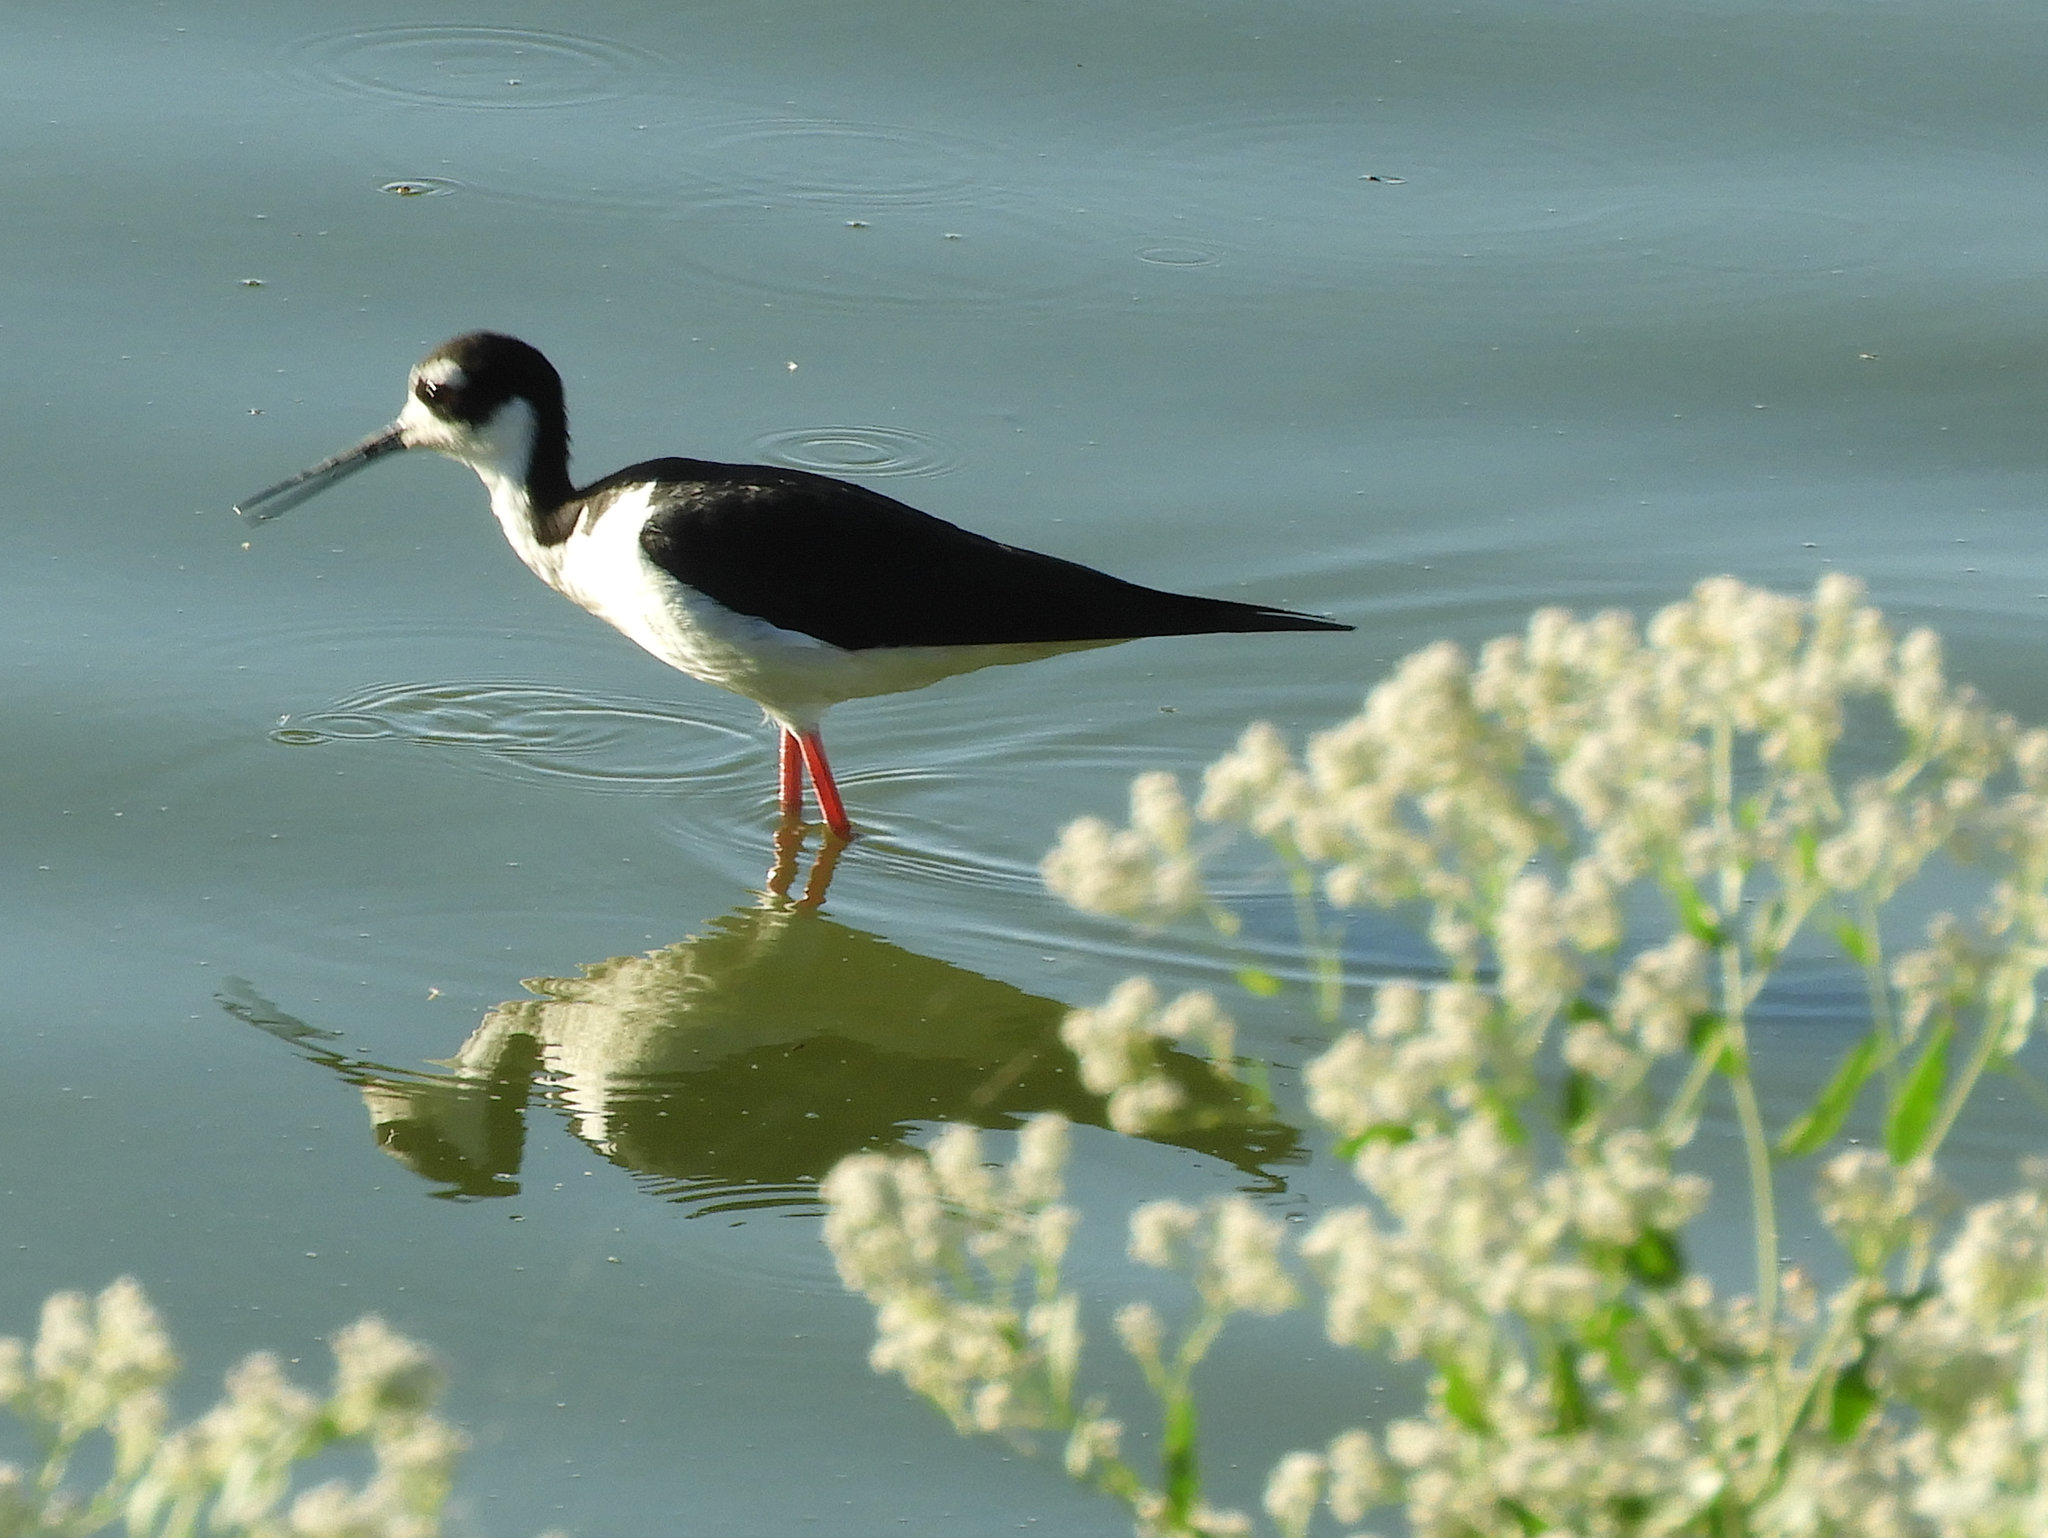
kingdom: Animalia
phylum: Chordata
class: Aves
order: Charadriiformes
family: Recurvirostridae
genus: Himantopus
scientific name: Himantopus mexicanus
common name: Black-necked stilt
